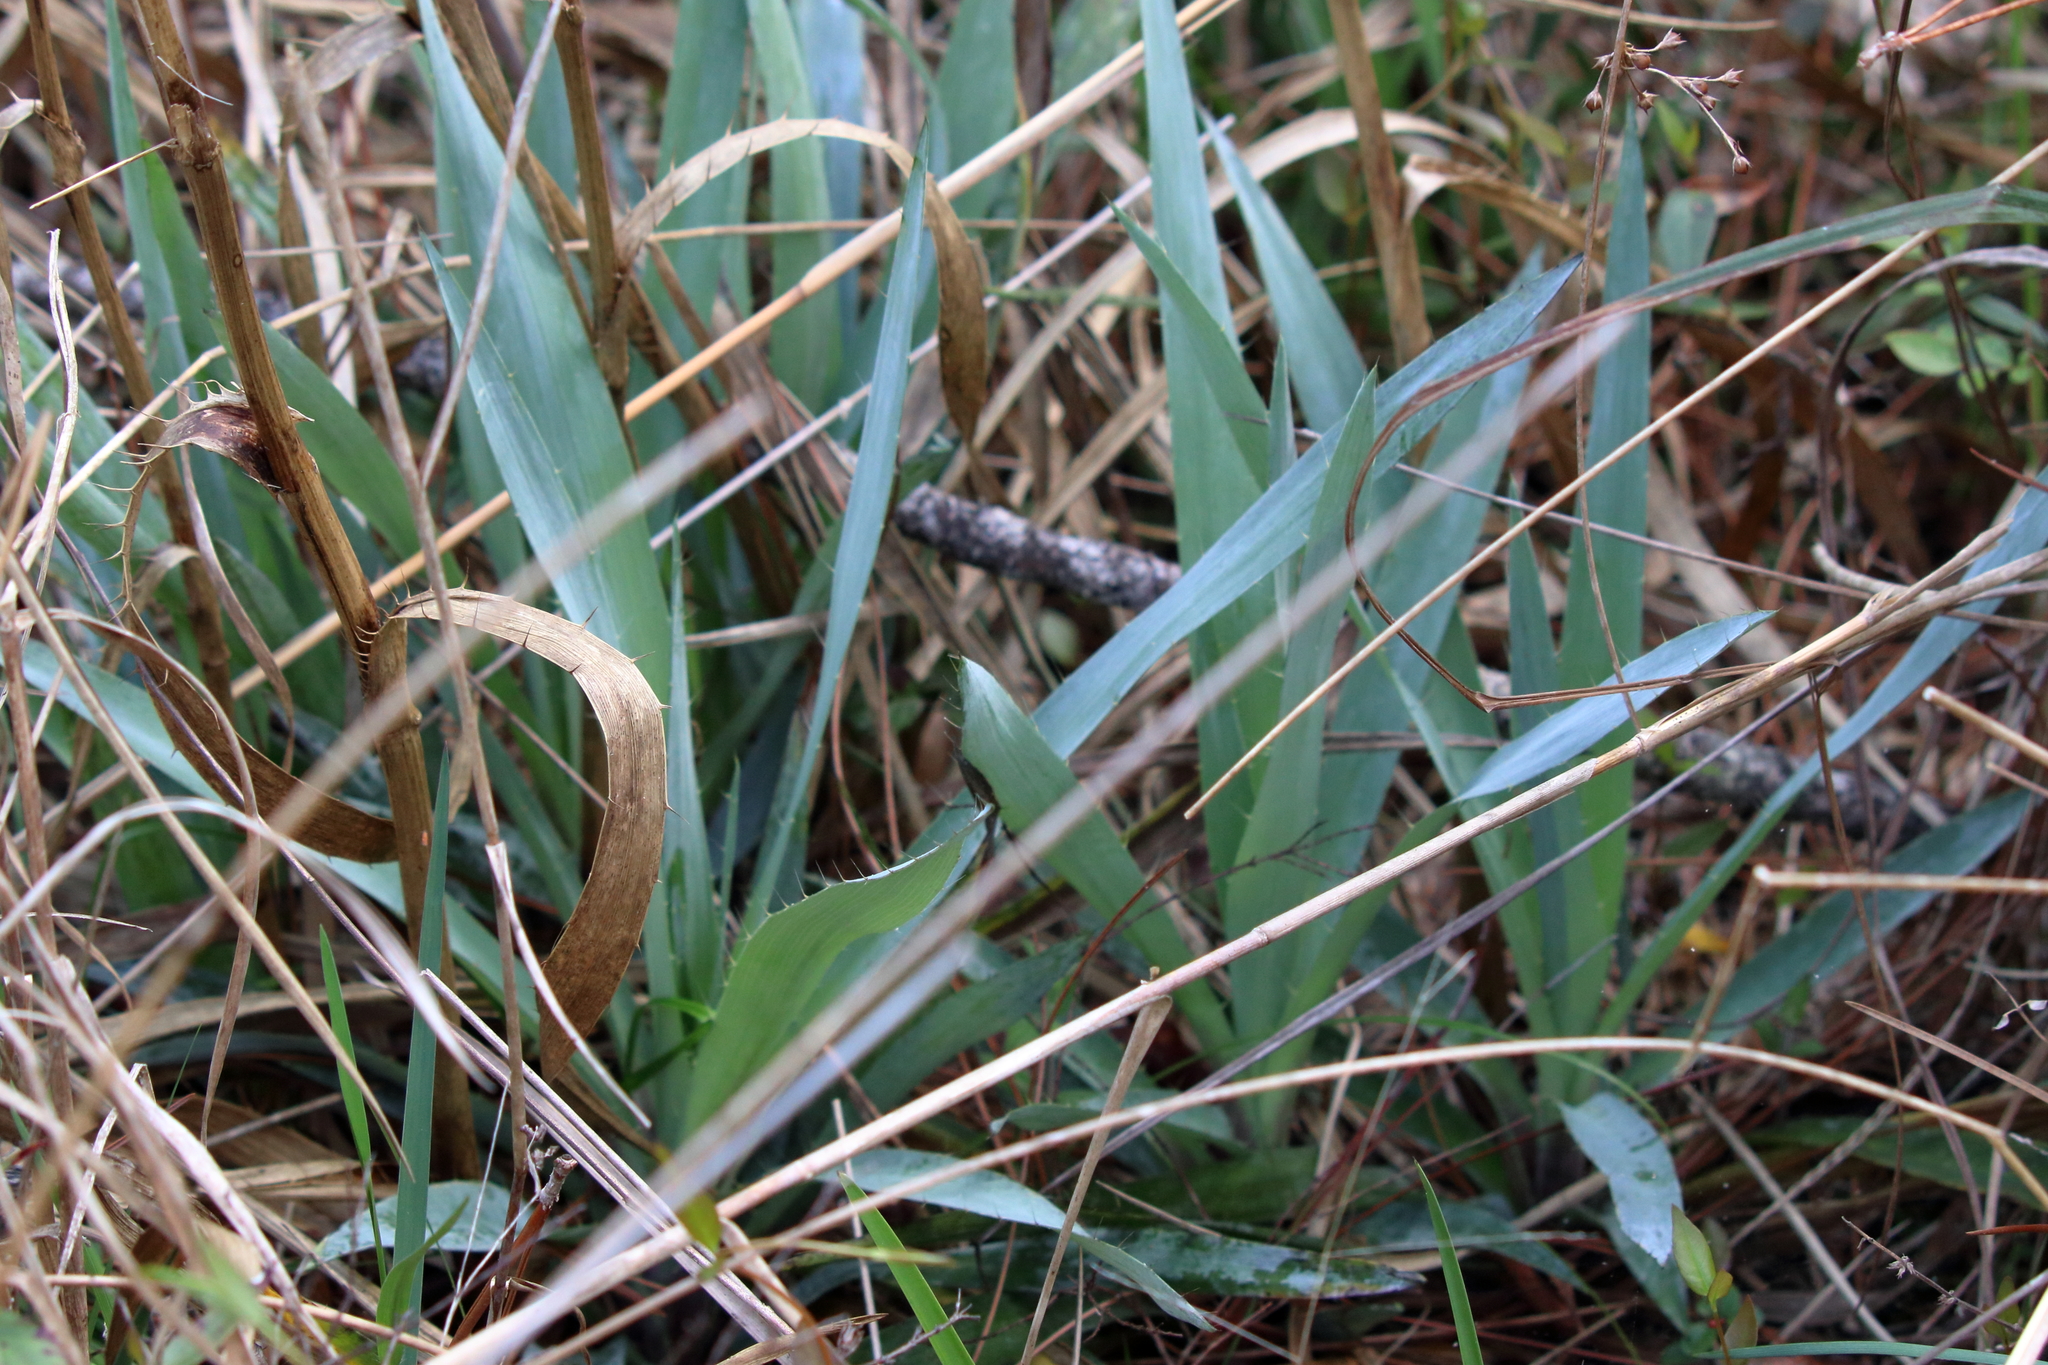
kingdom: Plantae
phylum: Tracheophyta
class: Magnoliopsida
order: Apiales
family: Apiaceae
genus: Eryngium
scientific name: Eryngium yuccifolium
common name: Button eryngo
